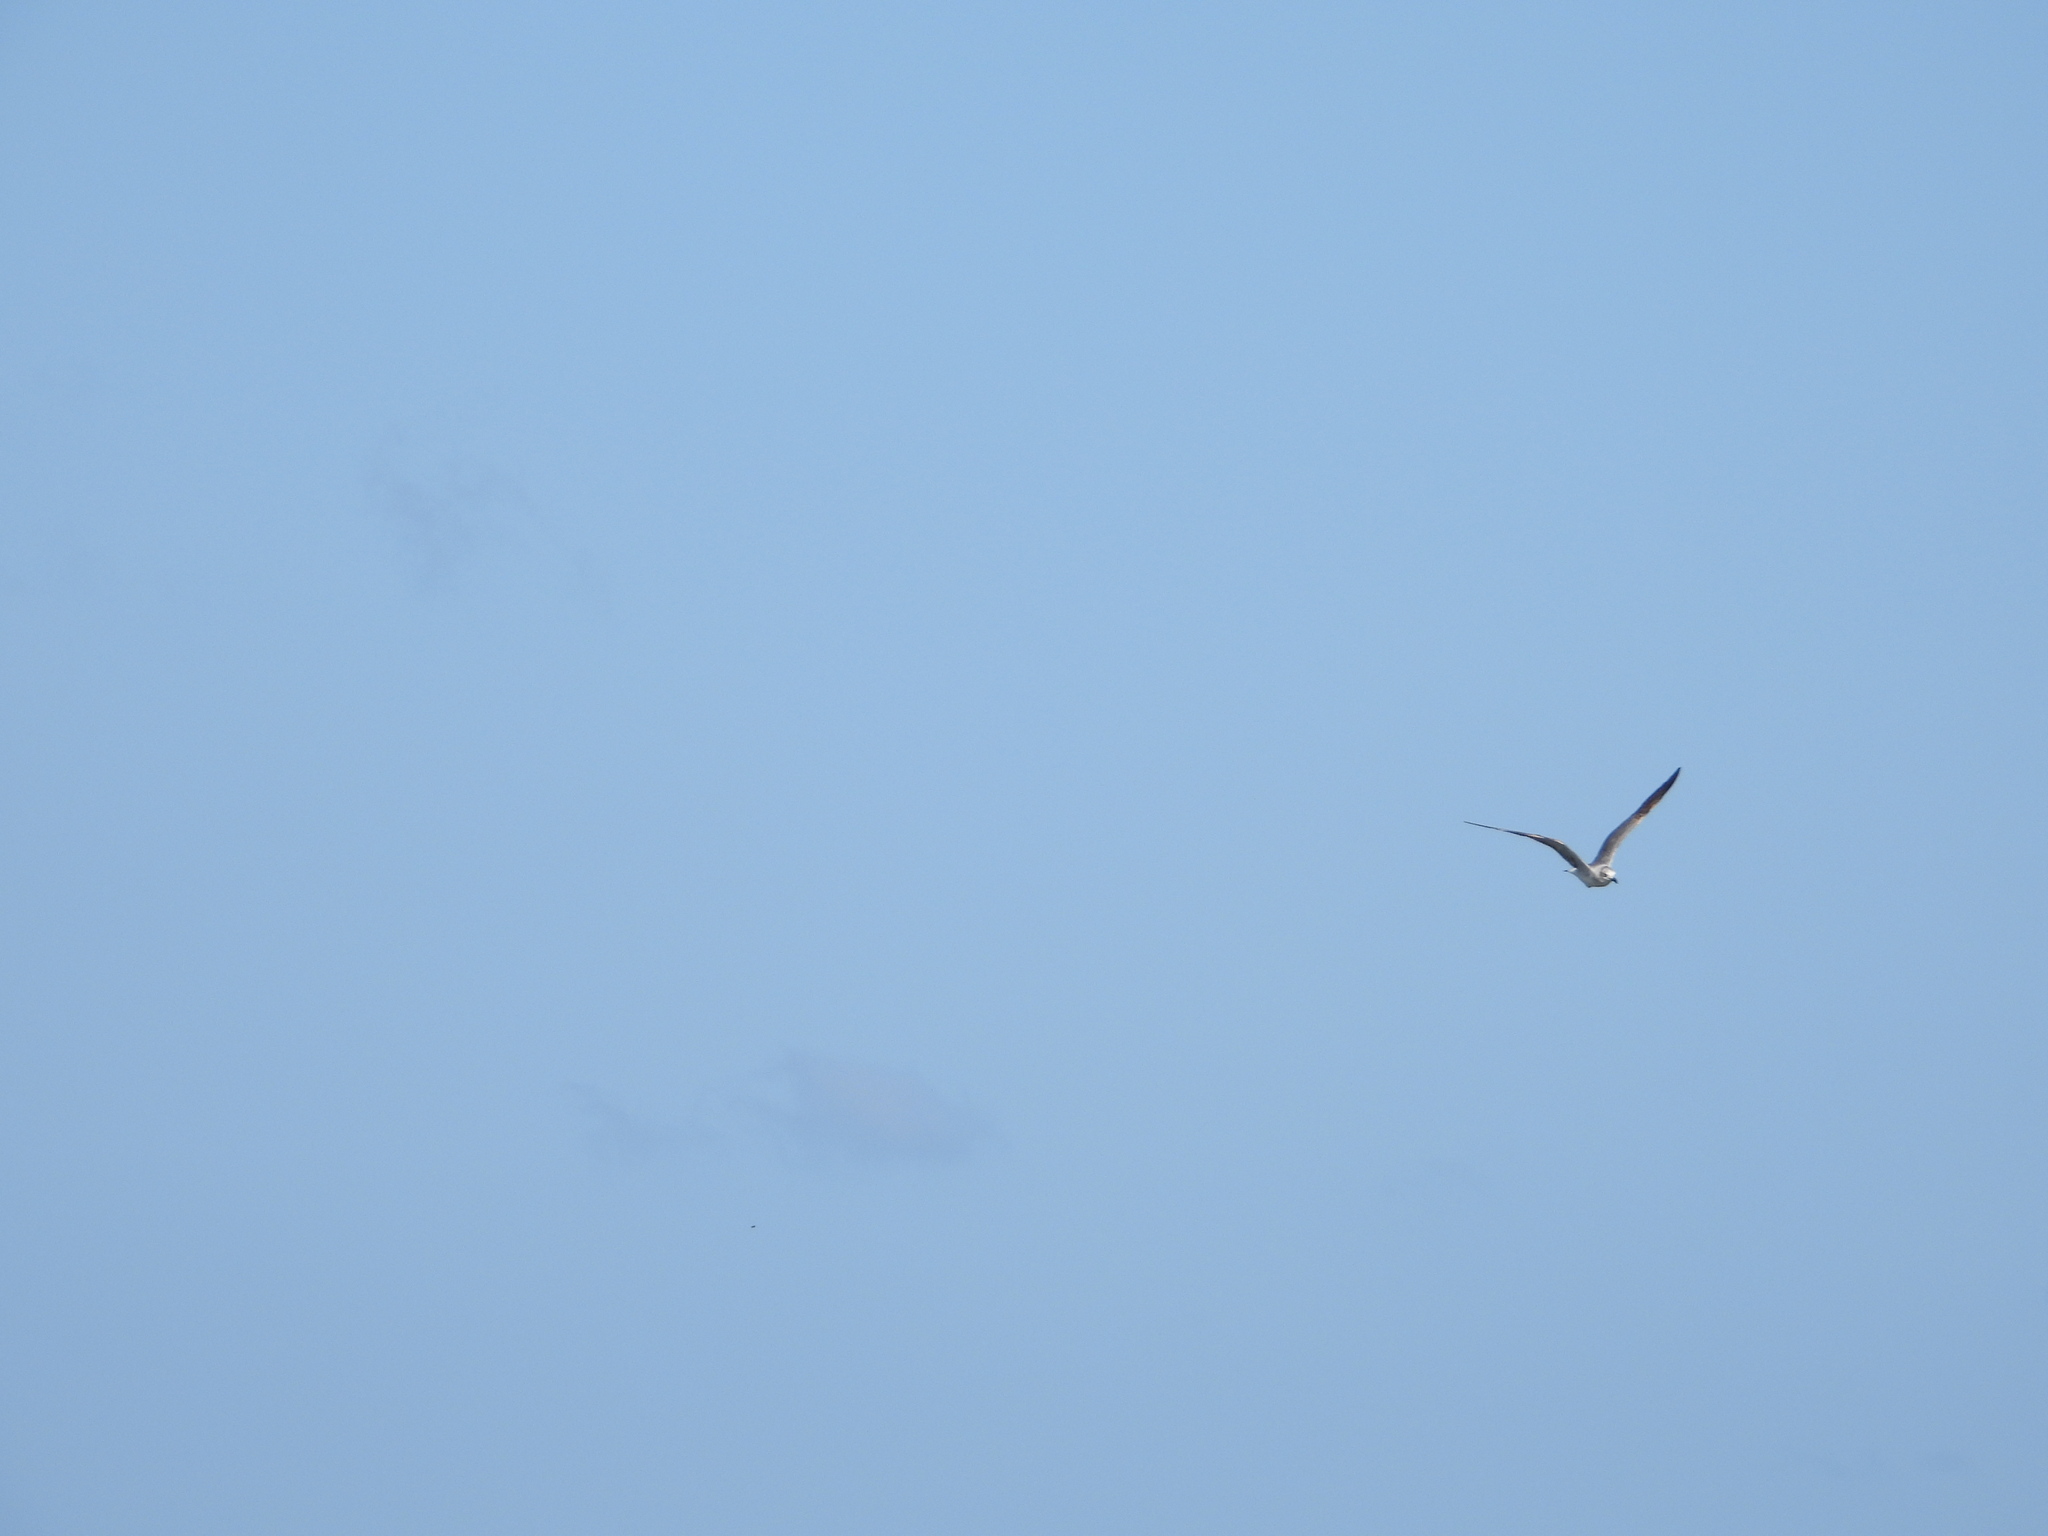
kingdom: Animalia
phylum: Chordata
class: Aves
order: Charadriiformes
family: Laridae
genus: Leucophaeus
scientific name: Leucophaeus atricilla
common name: Laughing gull
